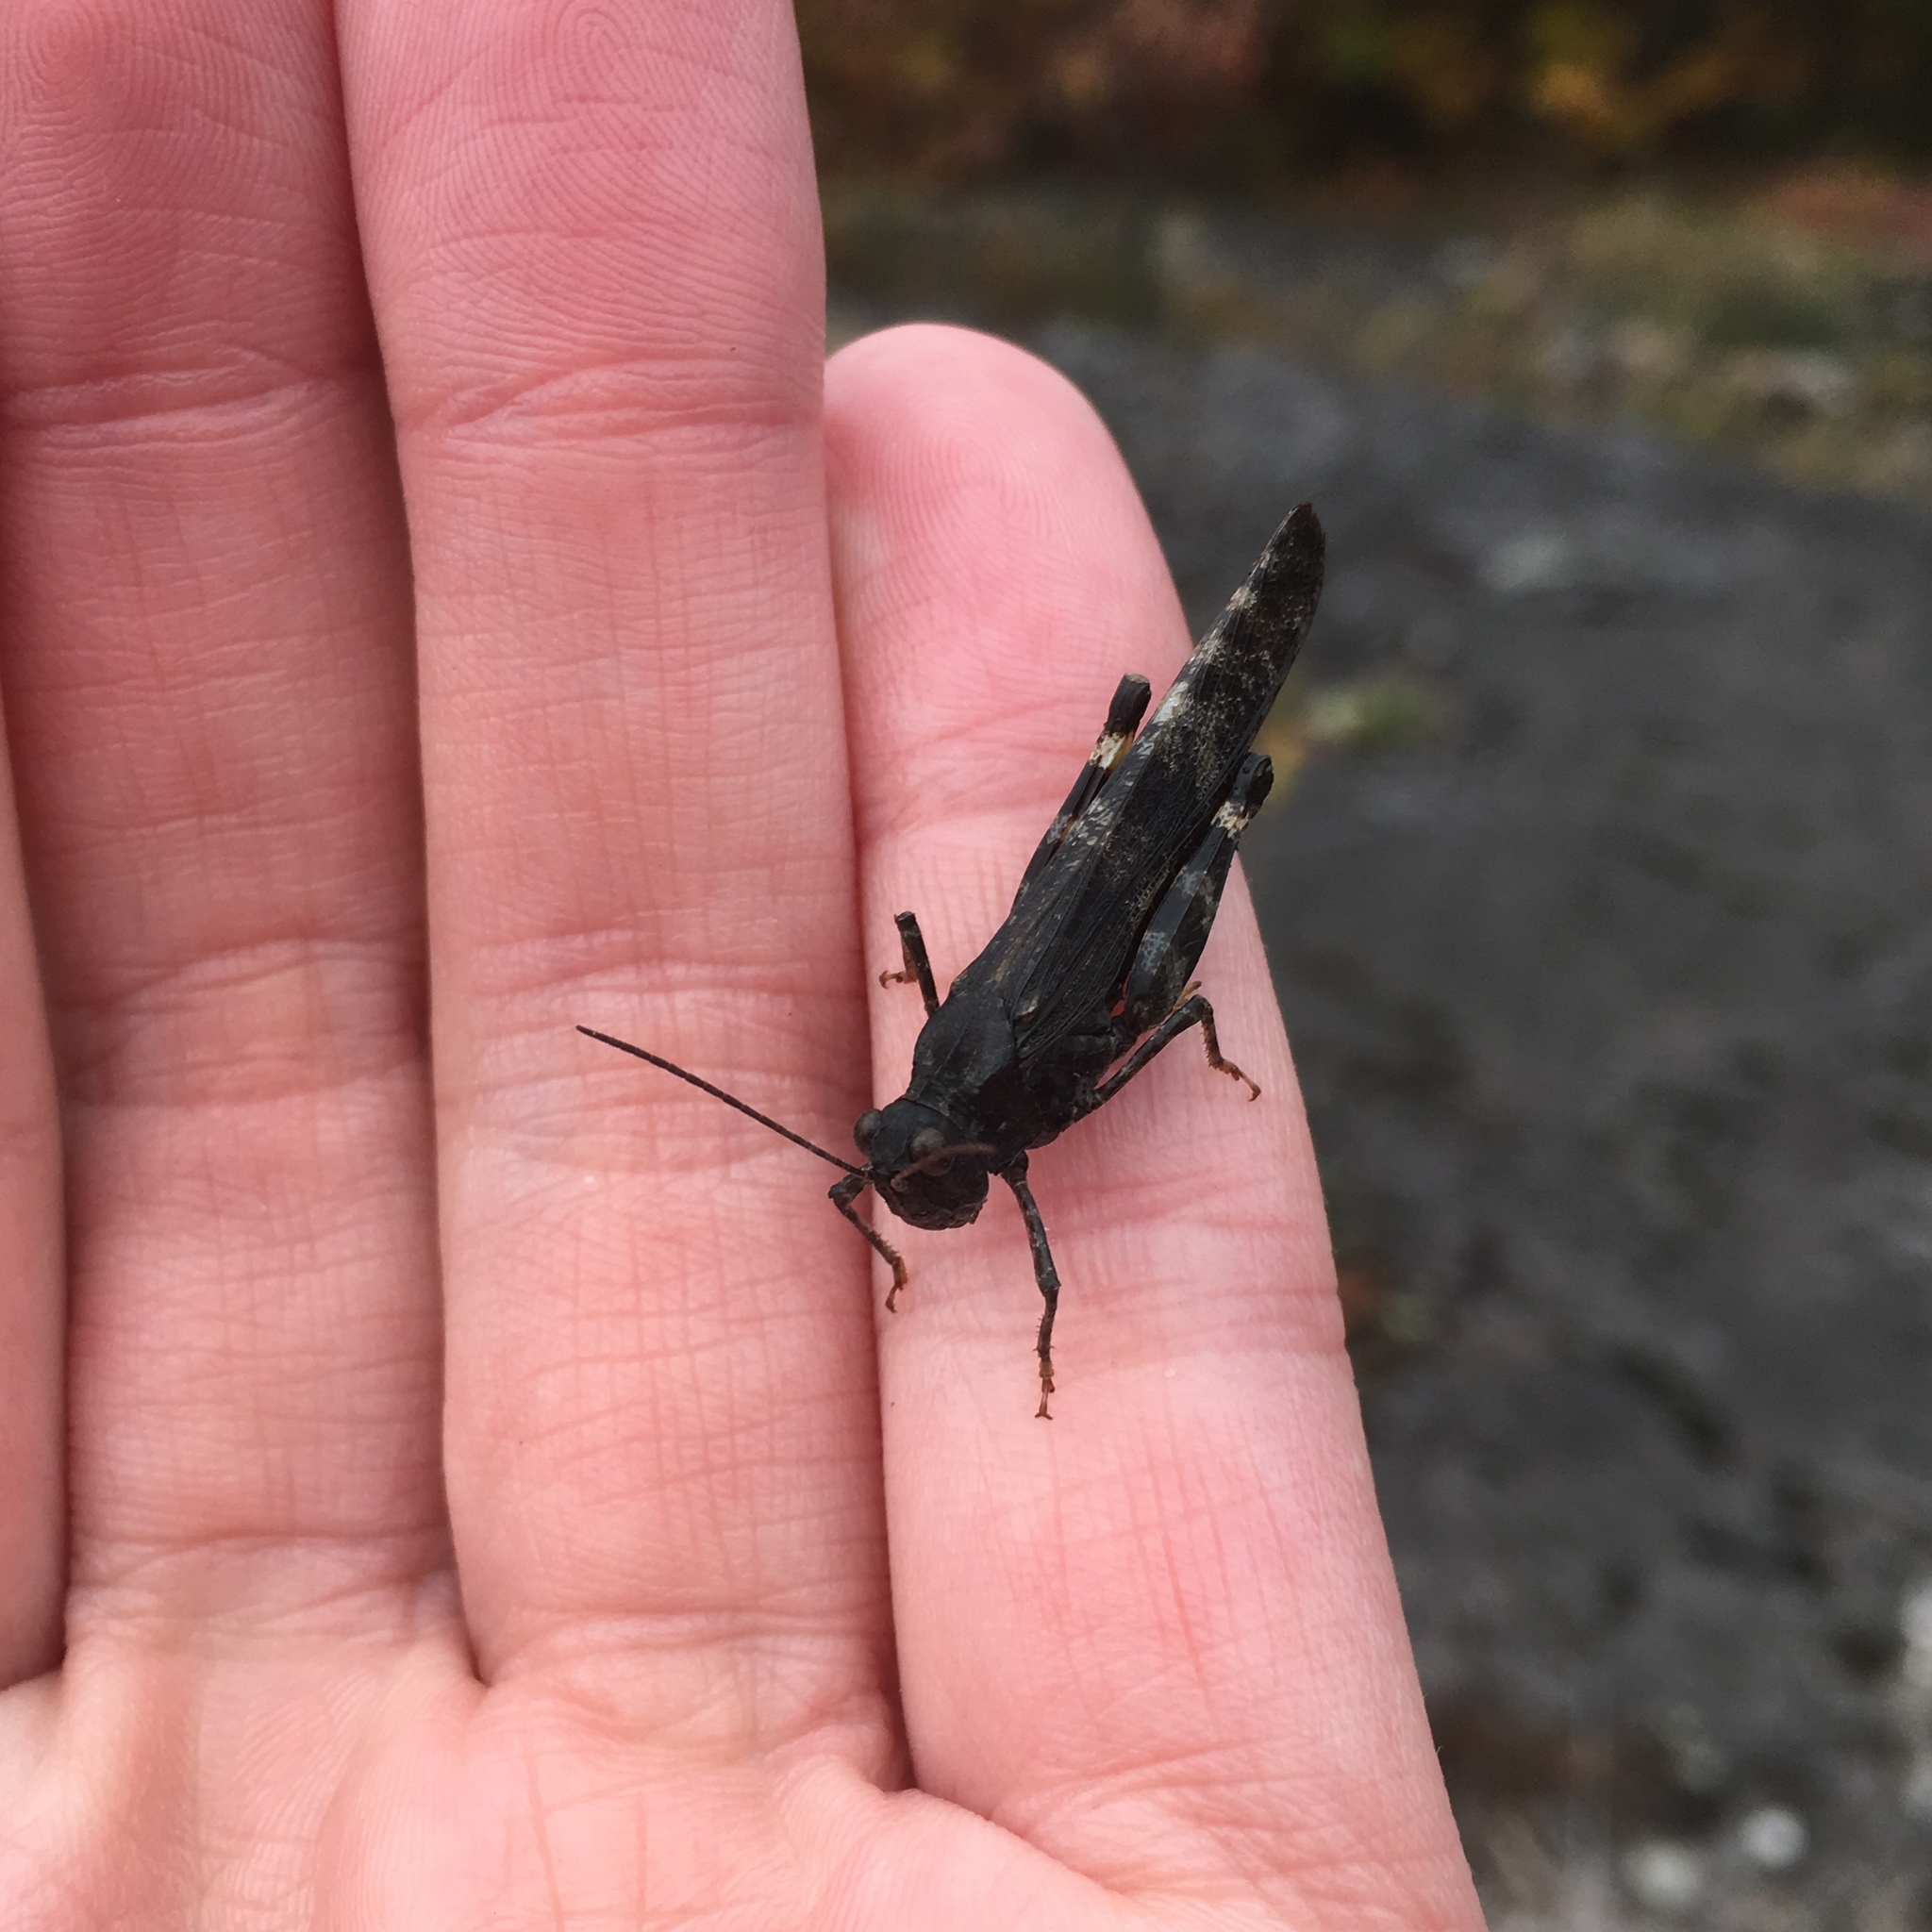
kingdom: Animalia
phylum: Arthropoda
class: Insecta
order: Orthoptera
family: Acrididae
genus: Trimerotropis
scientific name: Trimerotropis verruculata
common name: Crackling forest grasshopper
